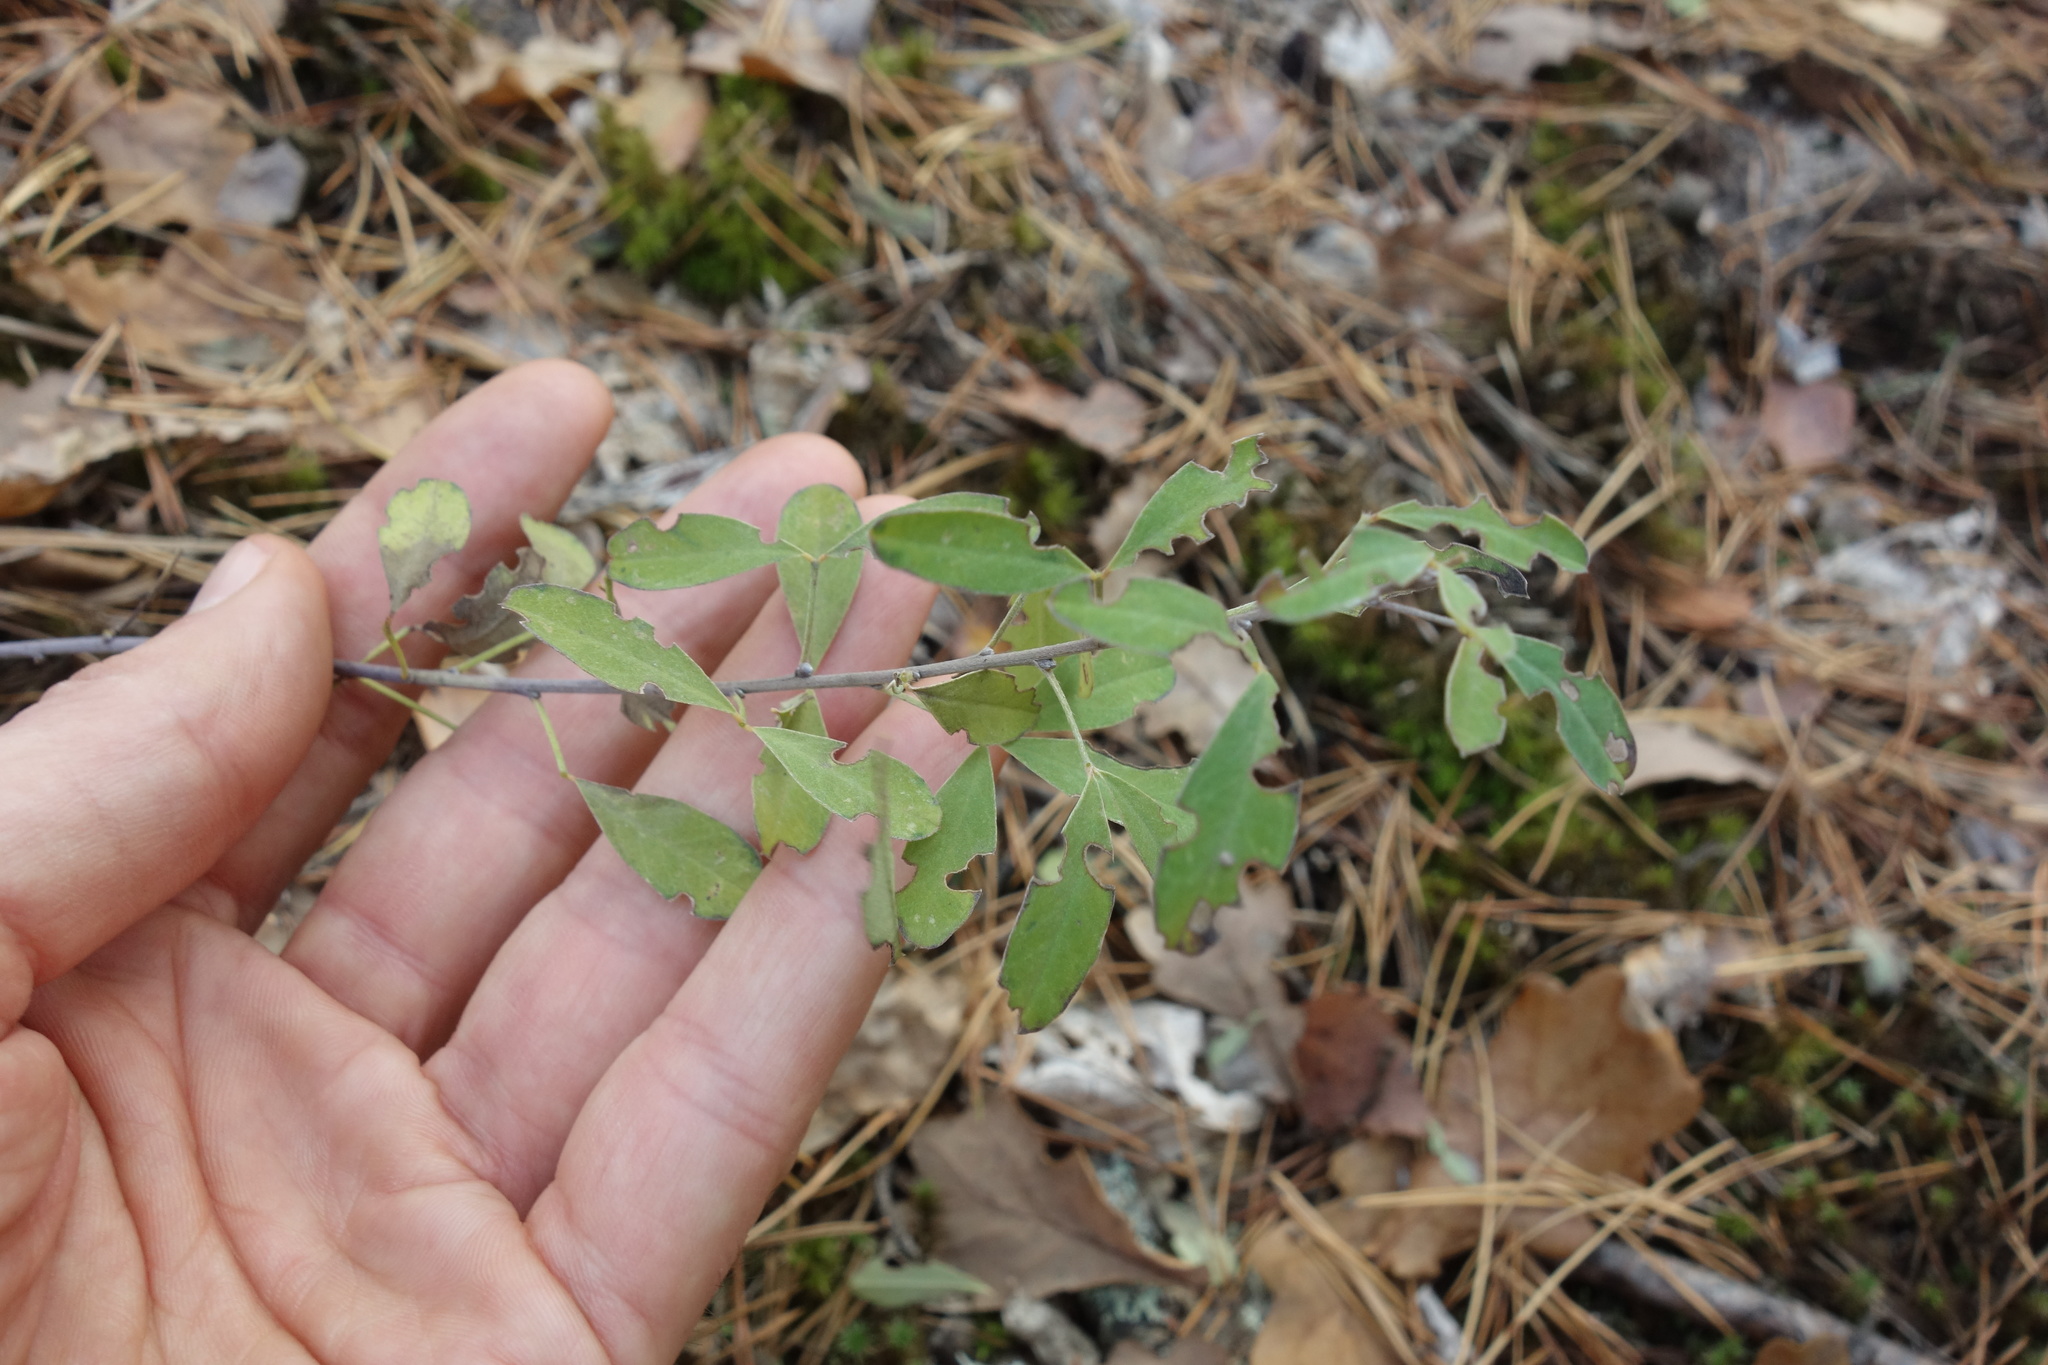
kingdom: Plantae
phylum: Tracheophyta
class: Magnoliopsida
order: Fabales
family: Fabaceae
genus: Chamaecytisus
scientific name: Chamaecytisus ruthenicus
